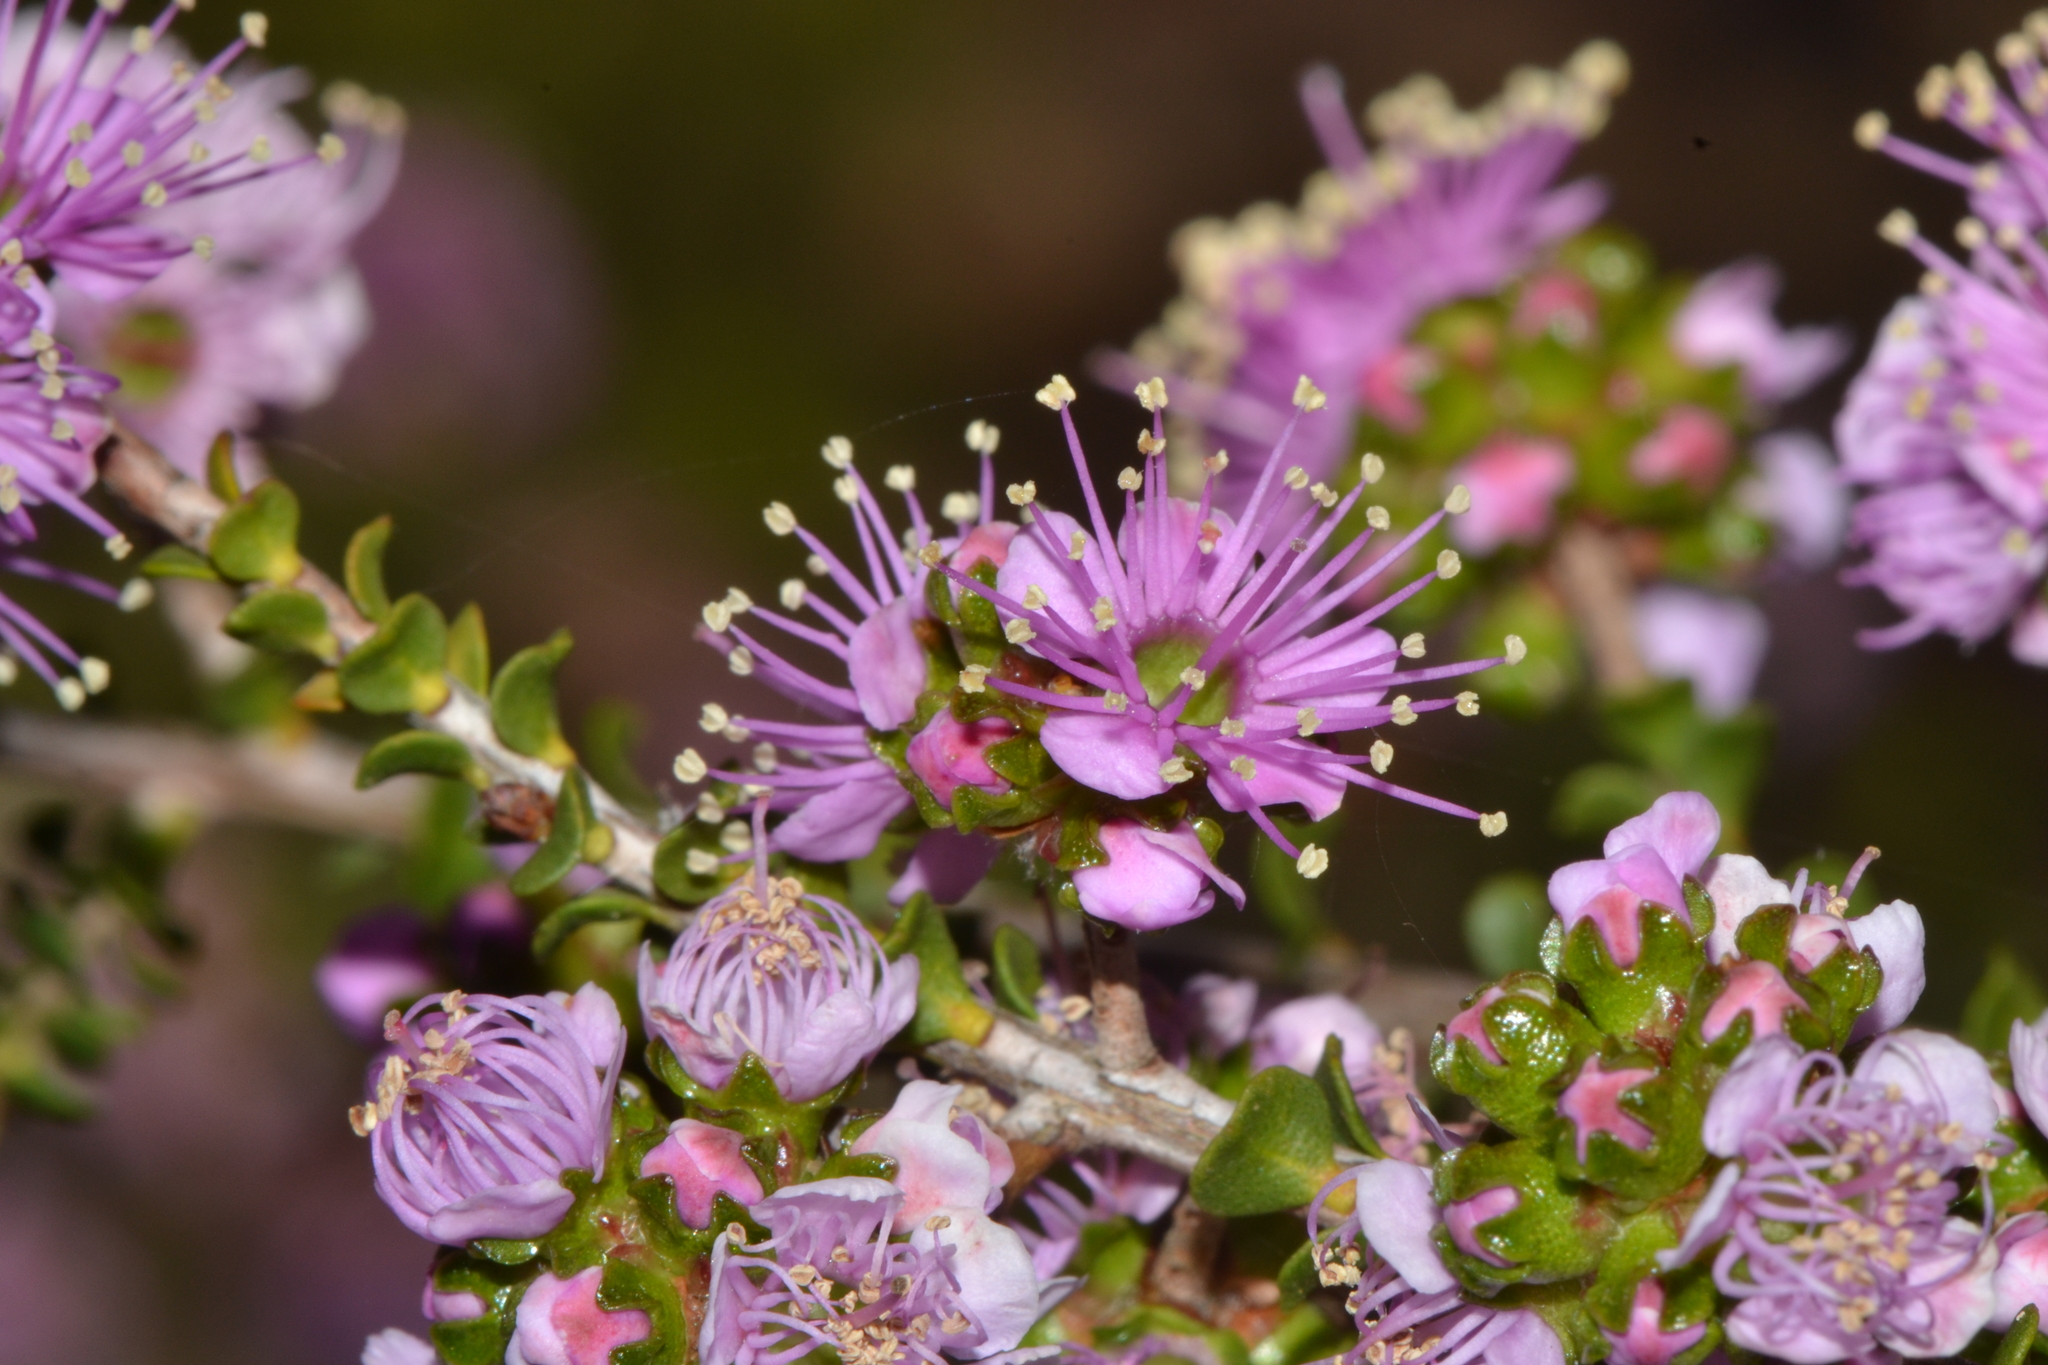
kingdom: Plantae
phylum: Tracheophyta
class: Magnoliopsida
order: Myrtales
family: Myrtaceae
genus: Kunzea
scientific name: Kunzea recurva
